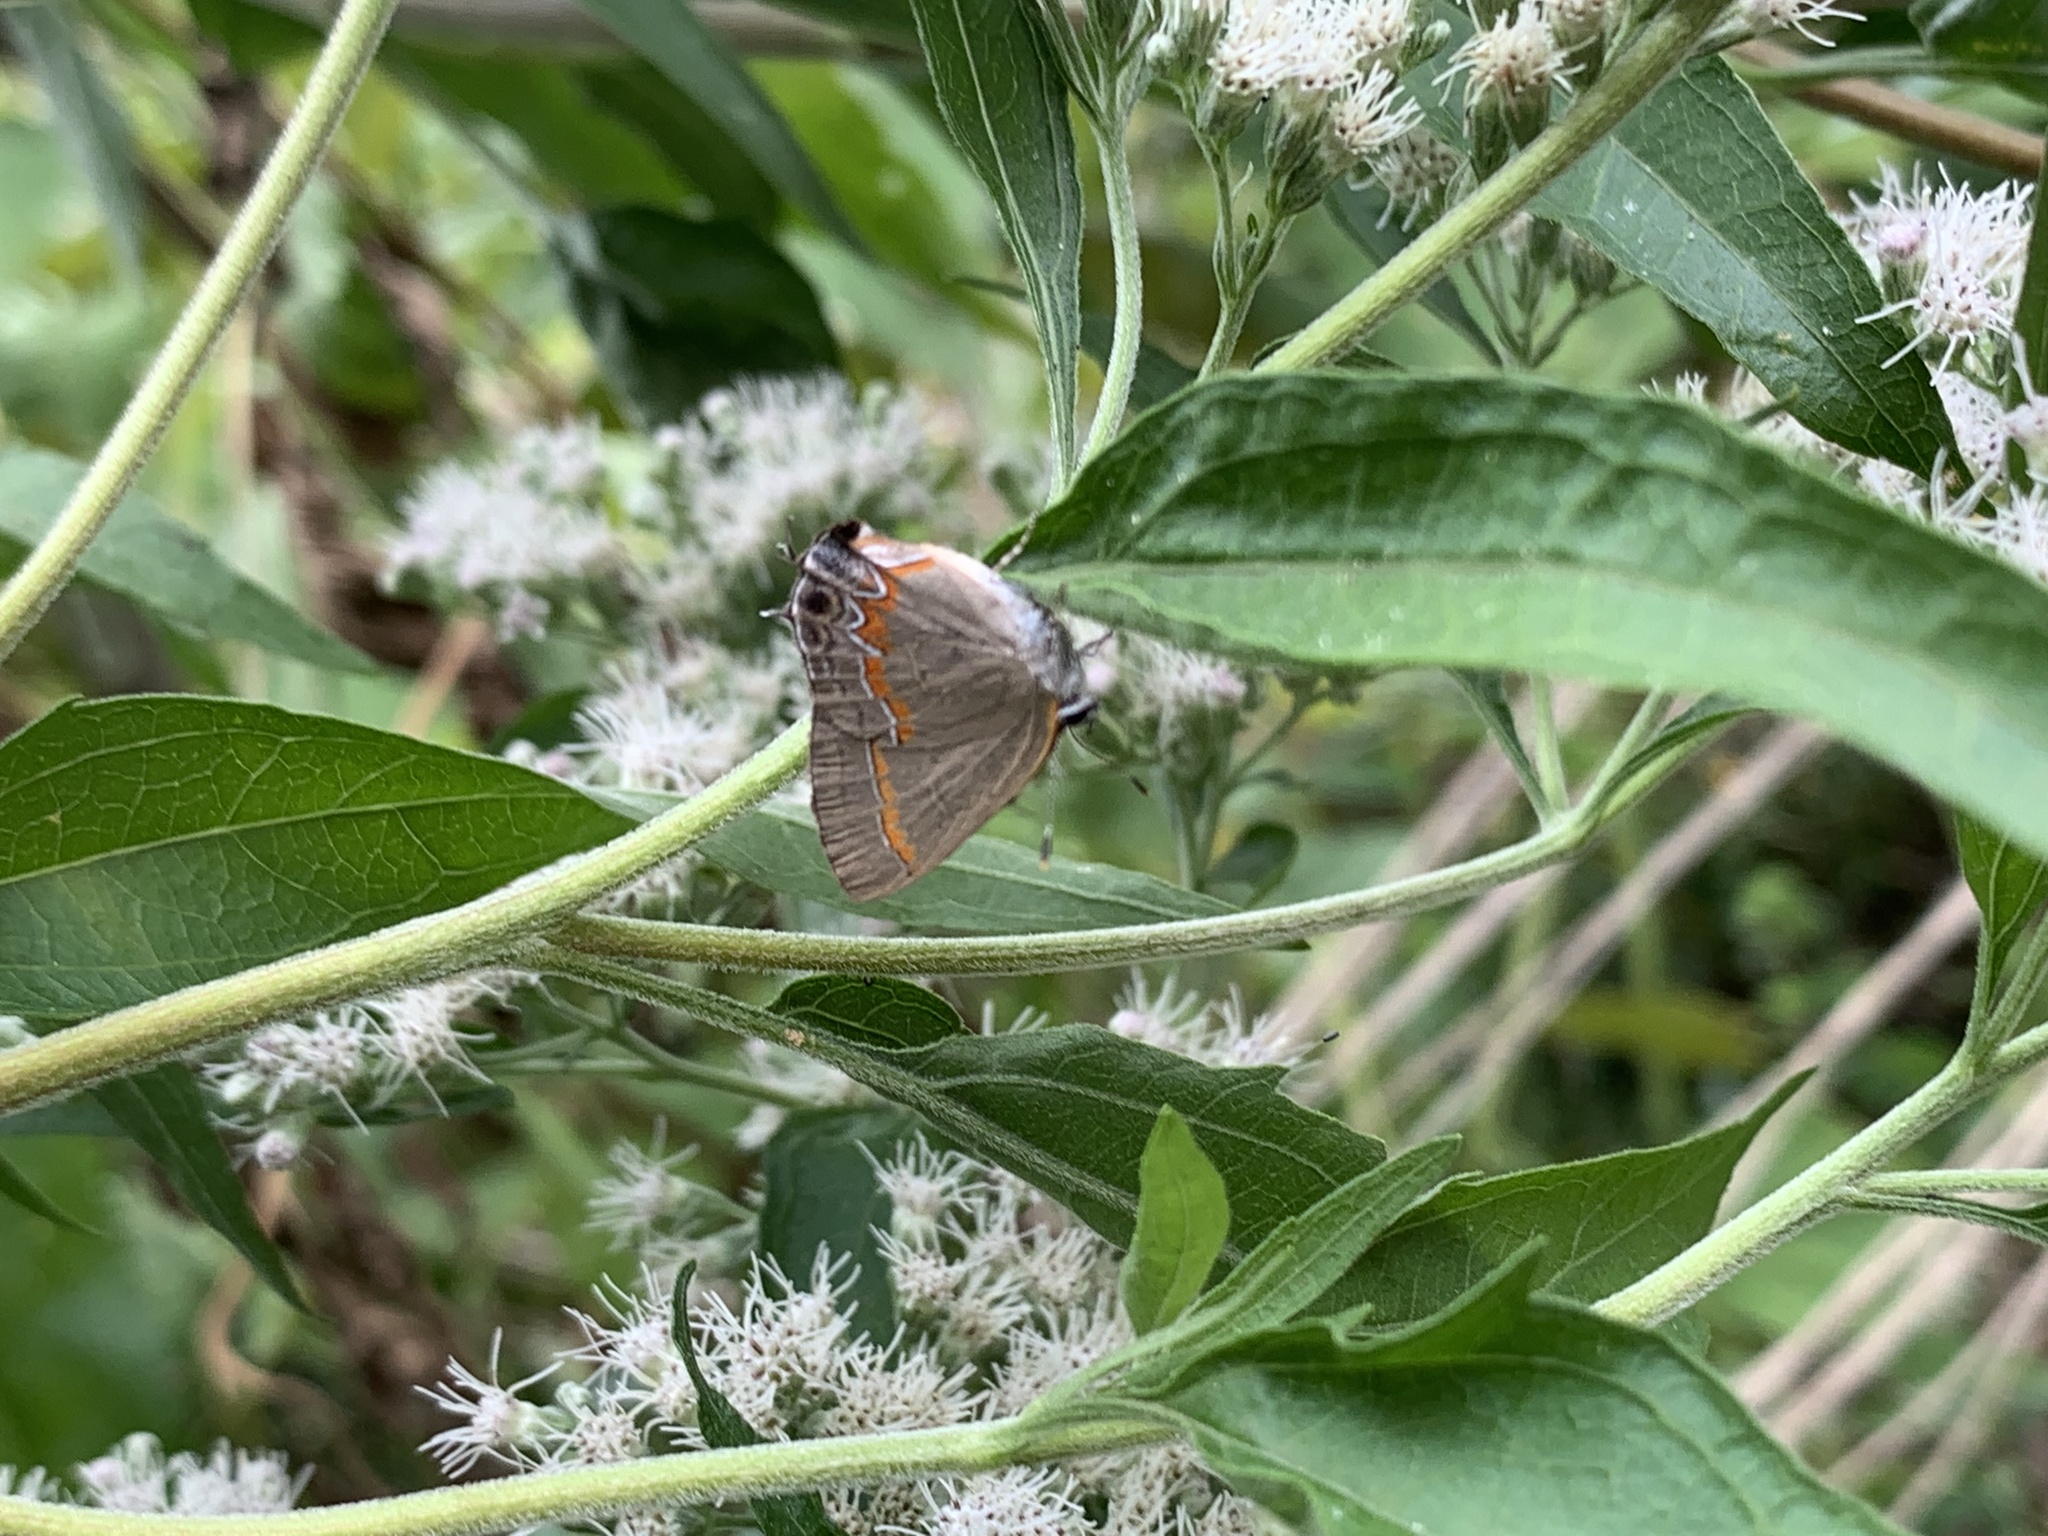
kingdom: Animalia
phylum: Arthropoda
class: Insecta
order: Lepidoptera
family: Lycaenidae
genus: Calycopis
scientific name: Calycopis cecrops
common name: Red-banded hairstreak
